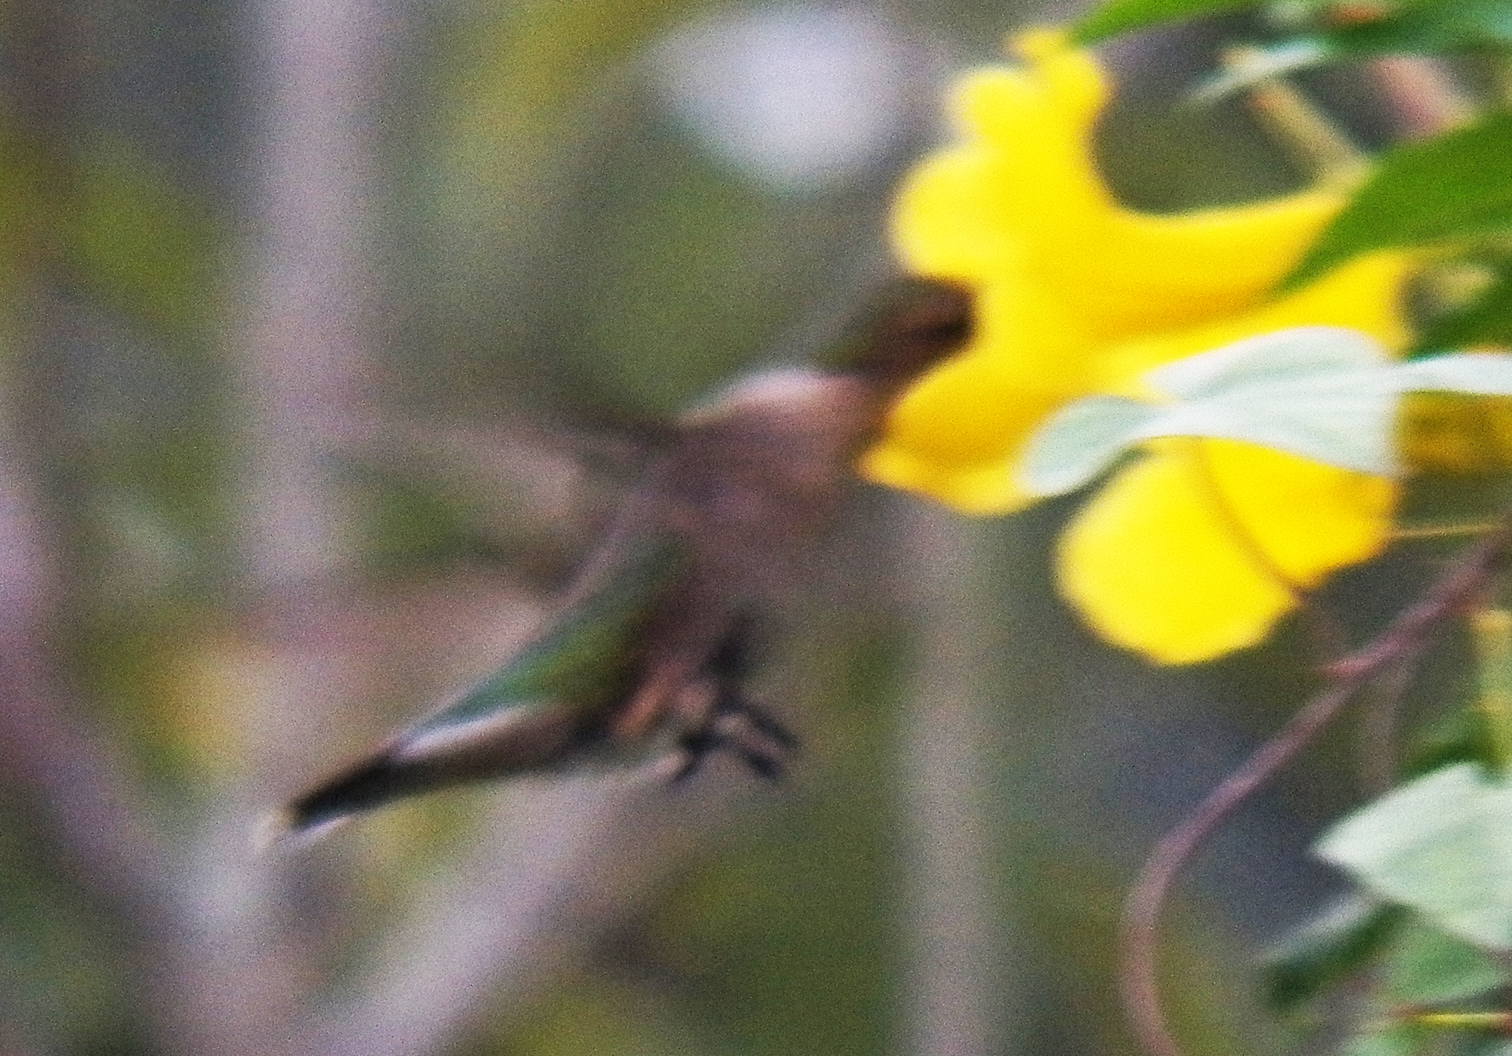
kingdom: Animalia
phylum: Chordata
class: Aves
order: Apodiformes
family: Trochilidae
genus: Archilochus
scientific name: Archilochus colubris
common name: Ruby-throated hummingbird
